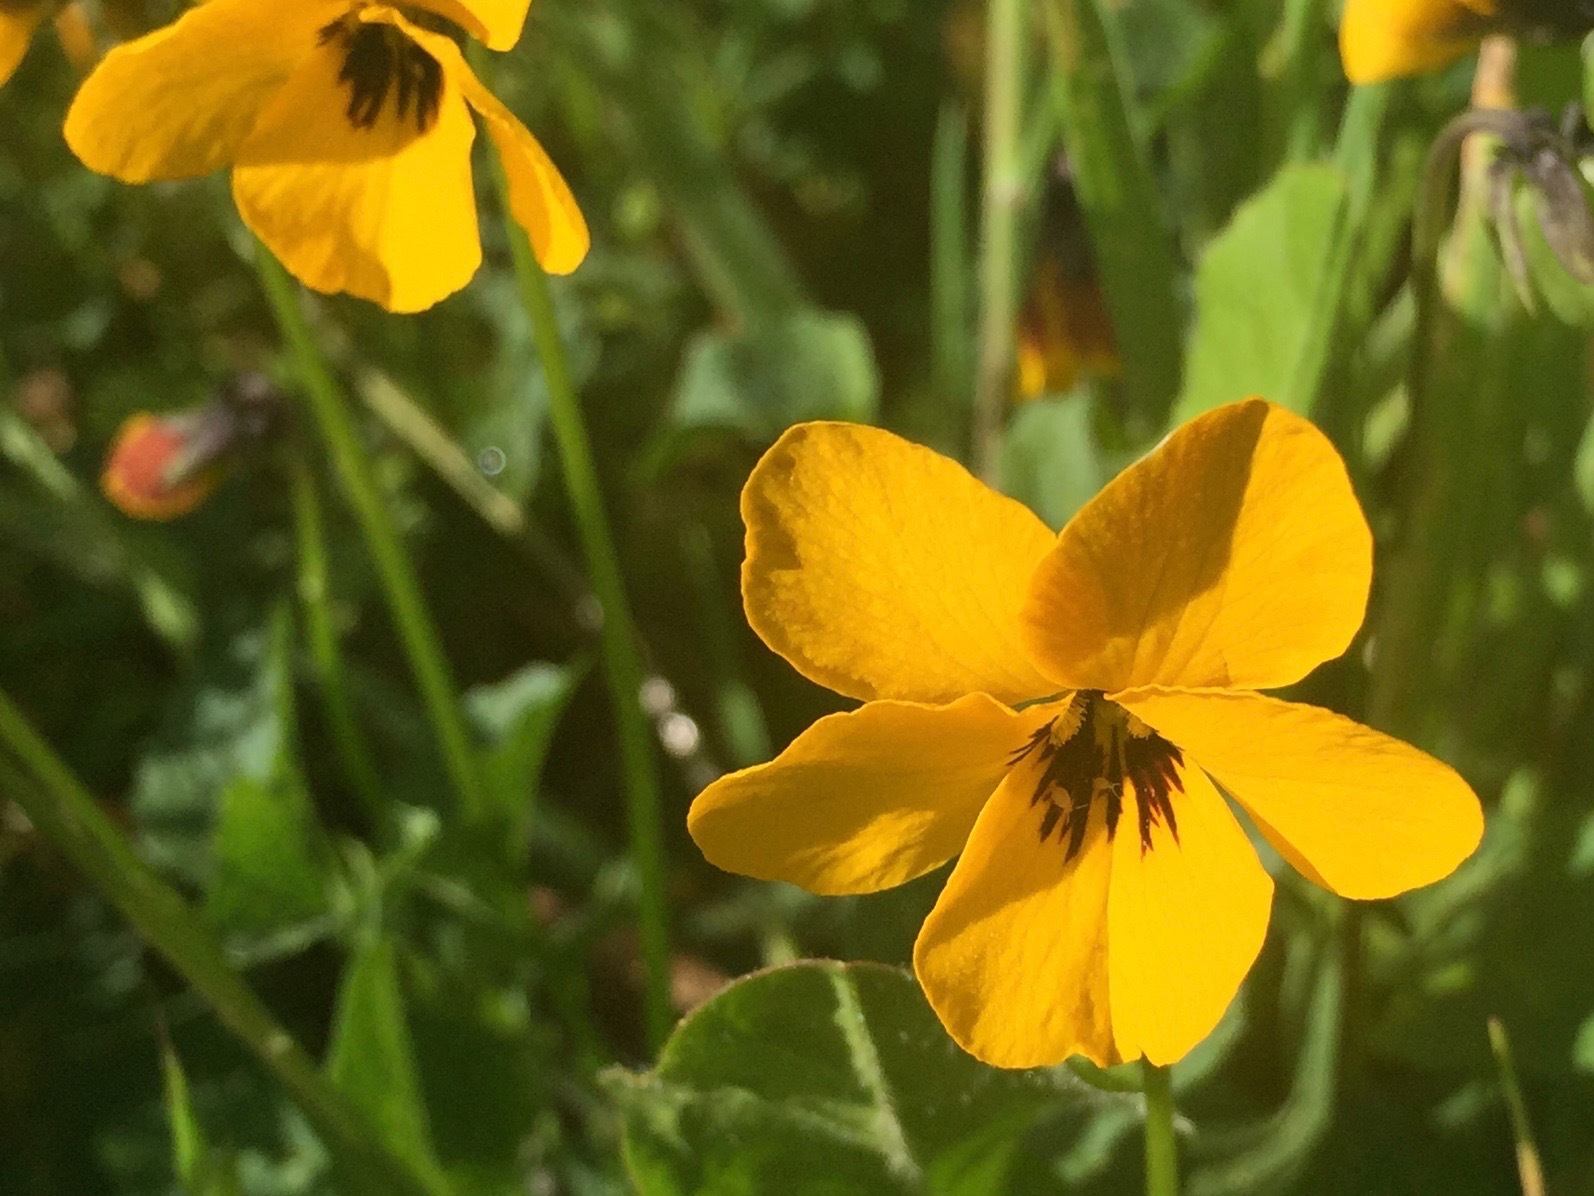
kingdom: Plantae
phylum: Tracheophyta
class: Magnoliopsida
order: Malpighiales
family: Violaceae
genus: Viola
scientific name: Viola pedunculata
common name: California golden violet
